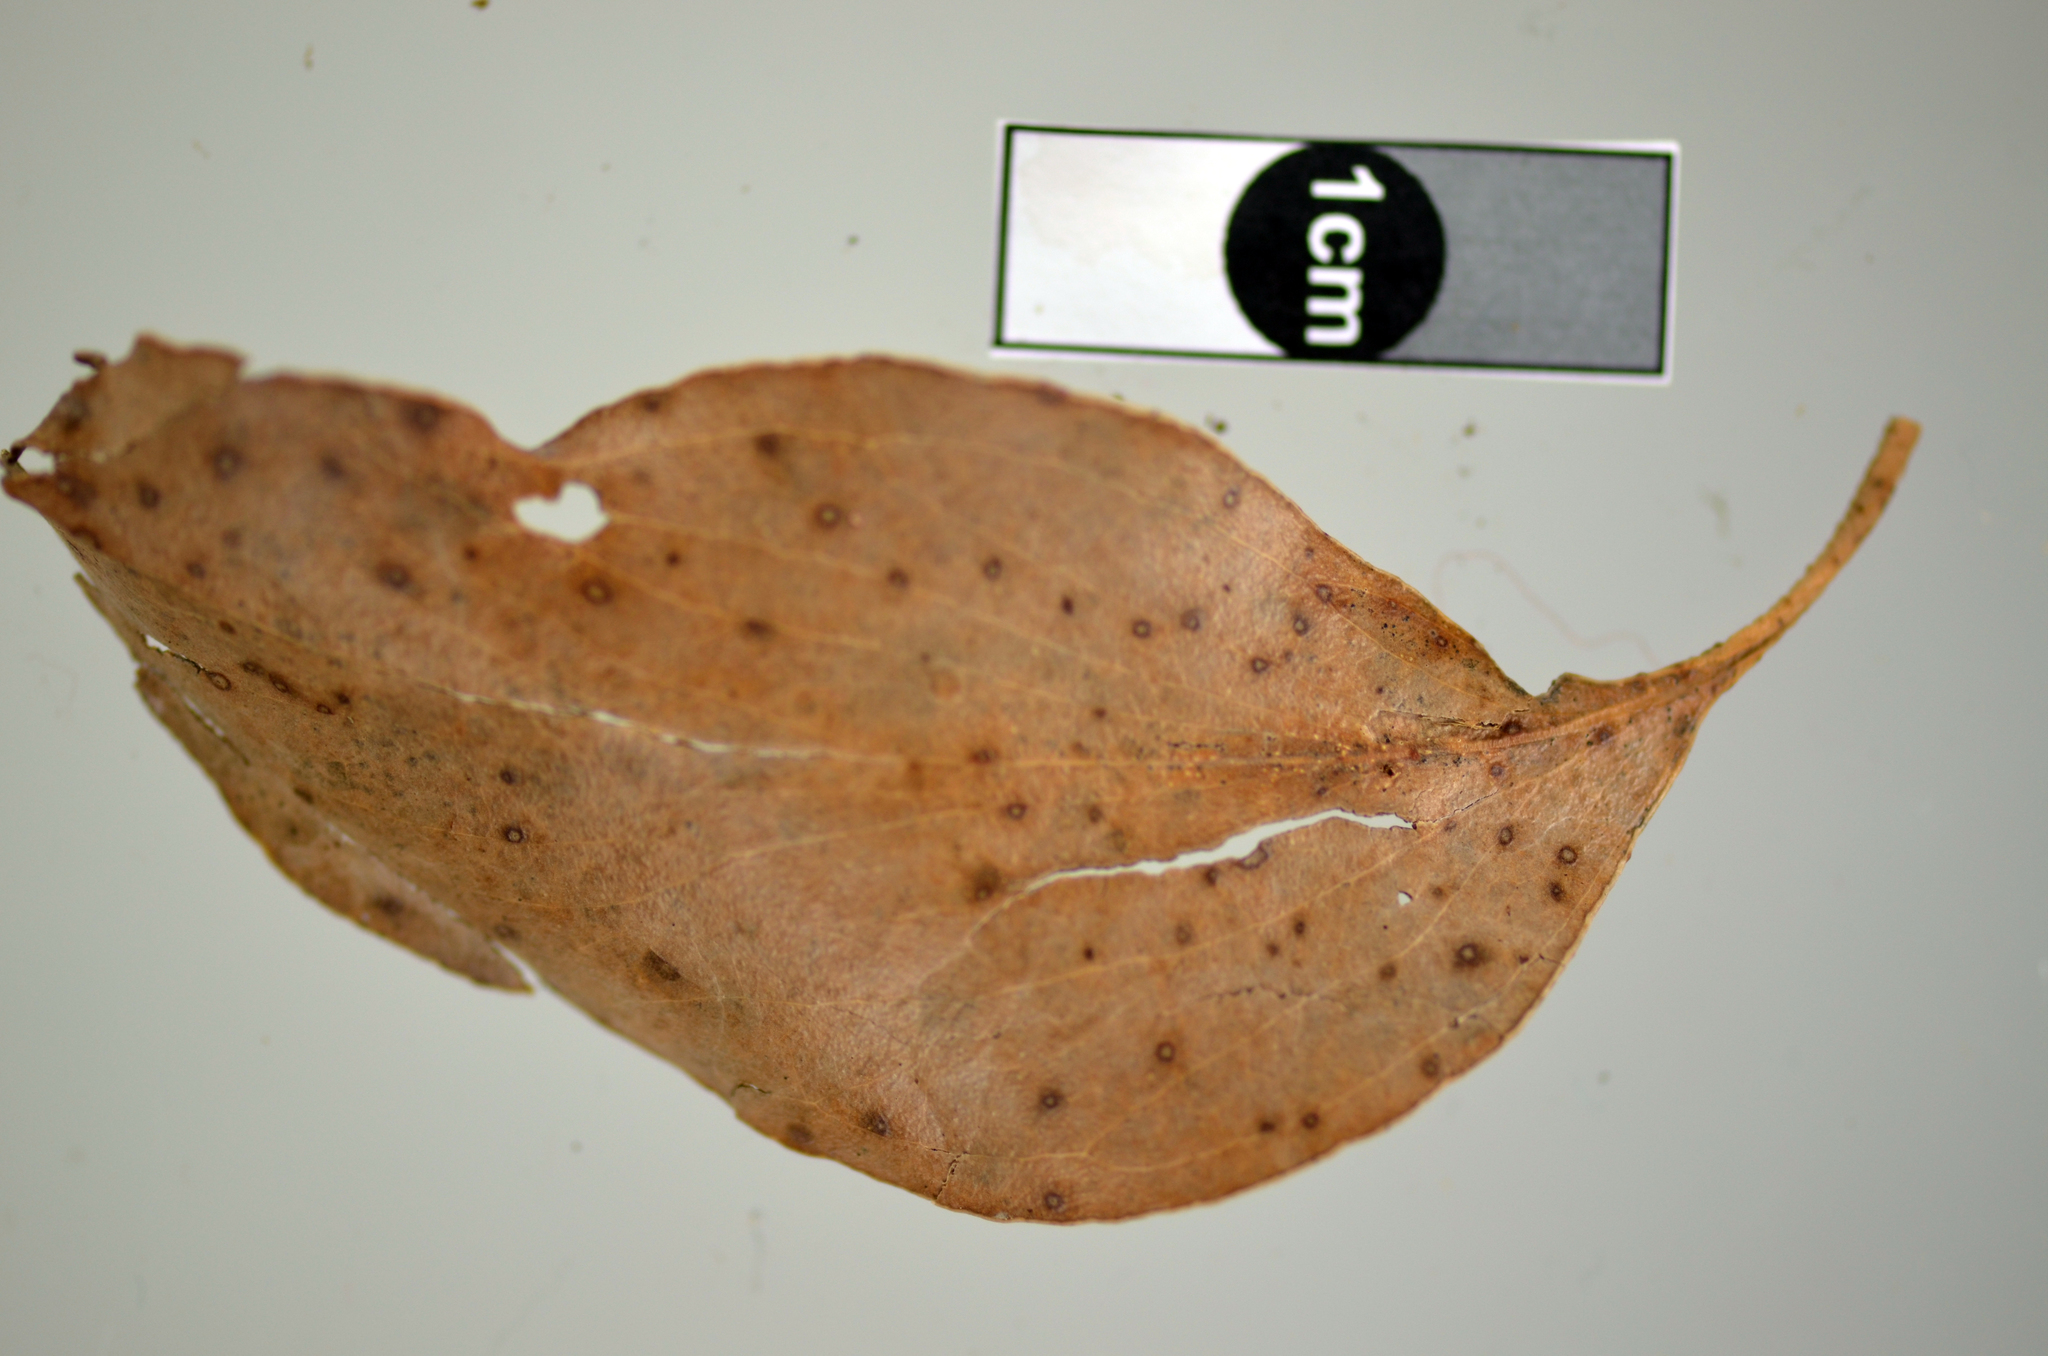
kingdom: Fungi
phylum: Ascomycota
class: Sordariomycetes
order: Diaporthales
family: Harknessiaceae
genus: Harknessia
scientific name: Harknessia eucalypti
